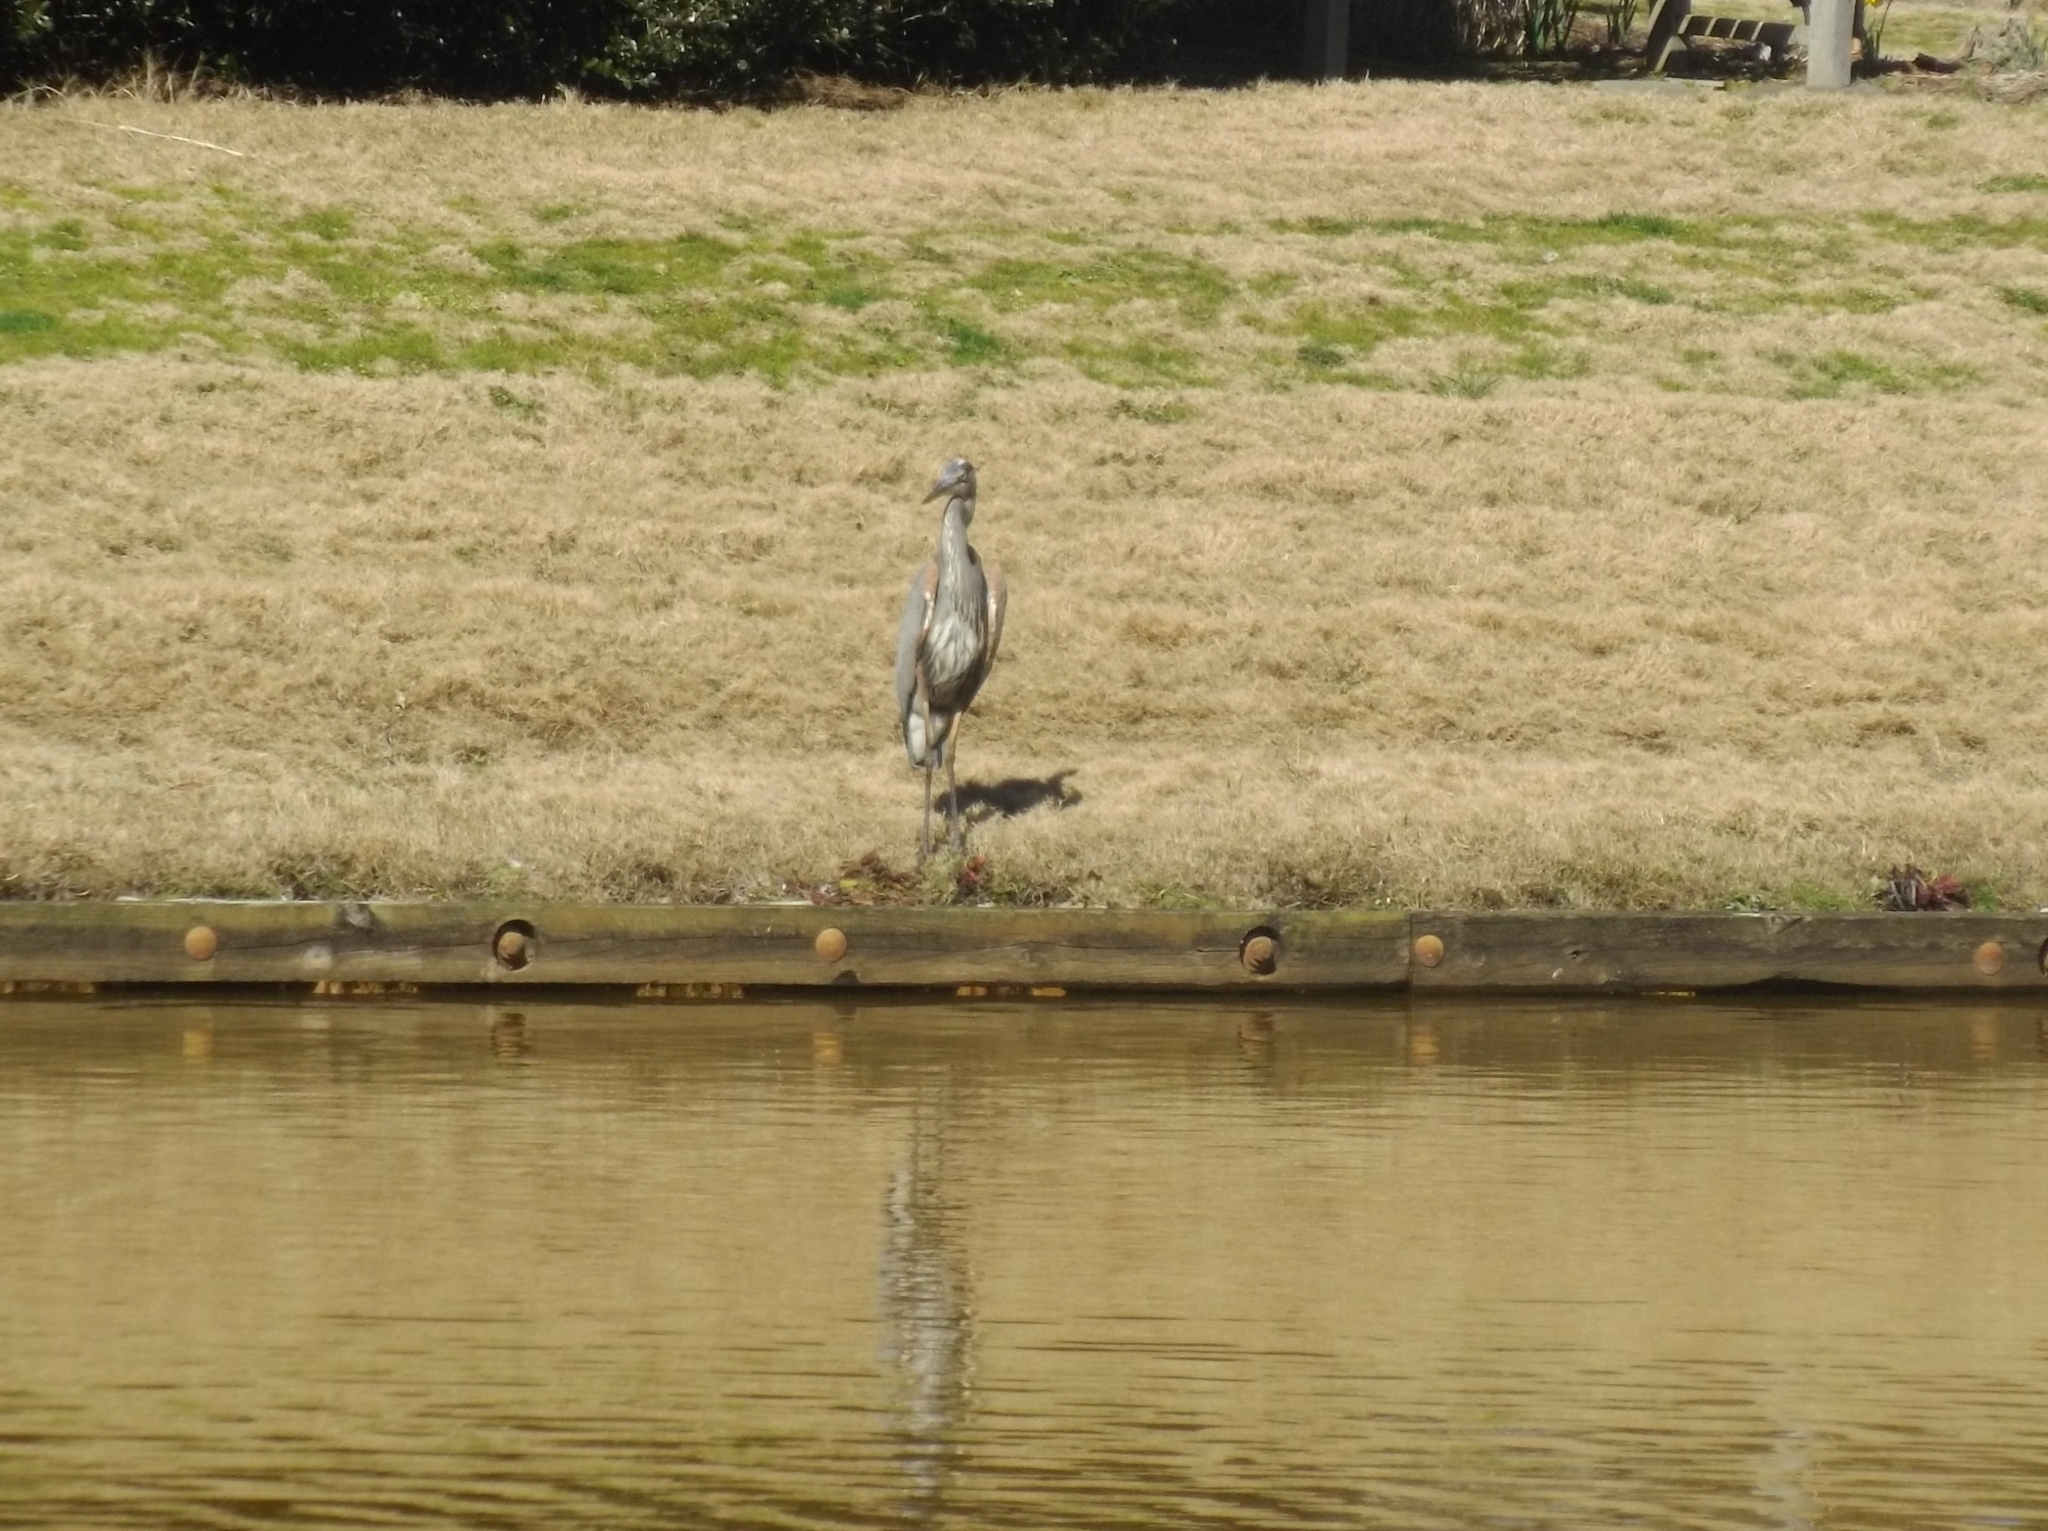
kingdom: Animalia
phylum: Chordata
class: Aves
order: Pelecaniformes
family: Ardeidae
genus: Ardea
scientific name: Ardea herodias
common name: Great blue heron
